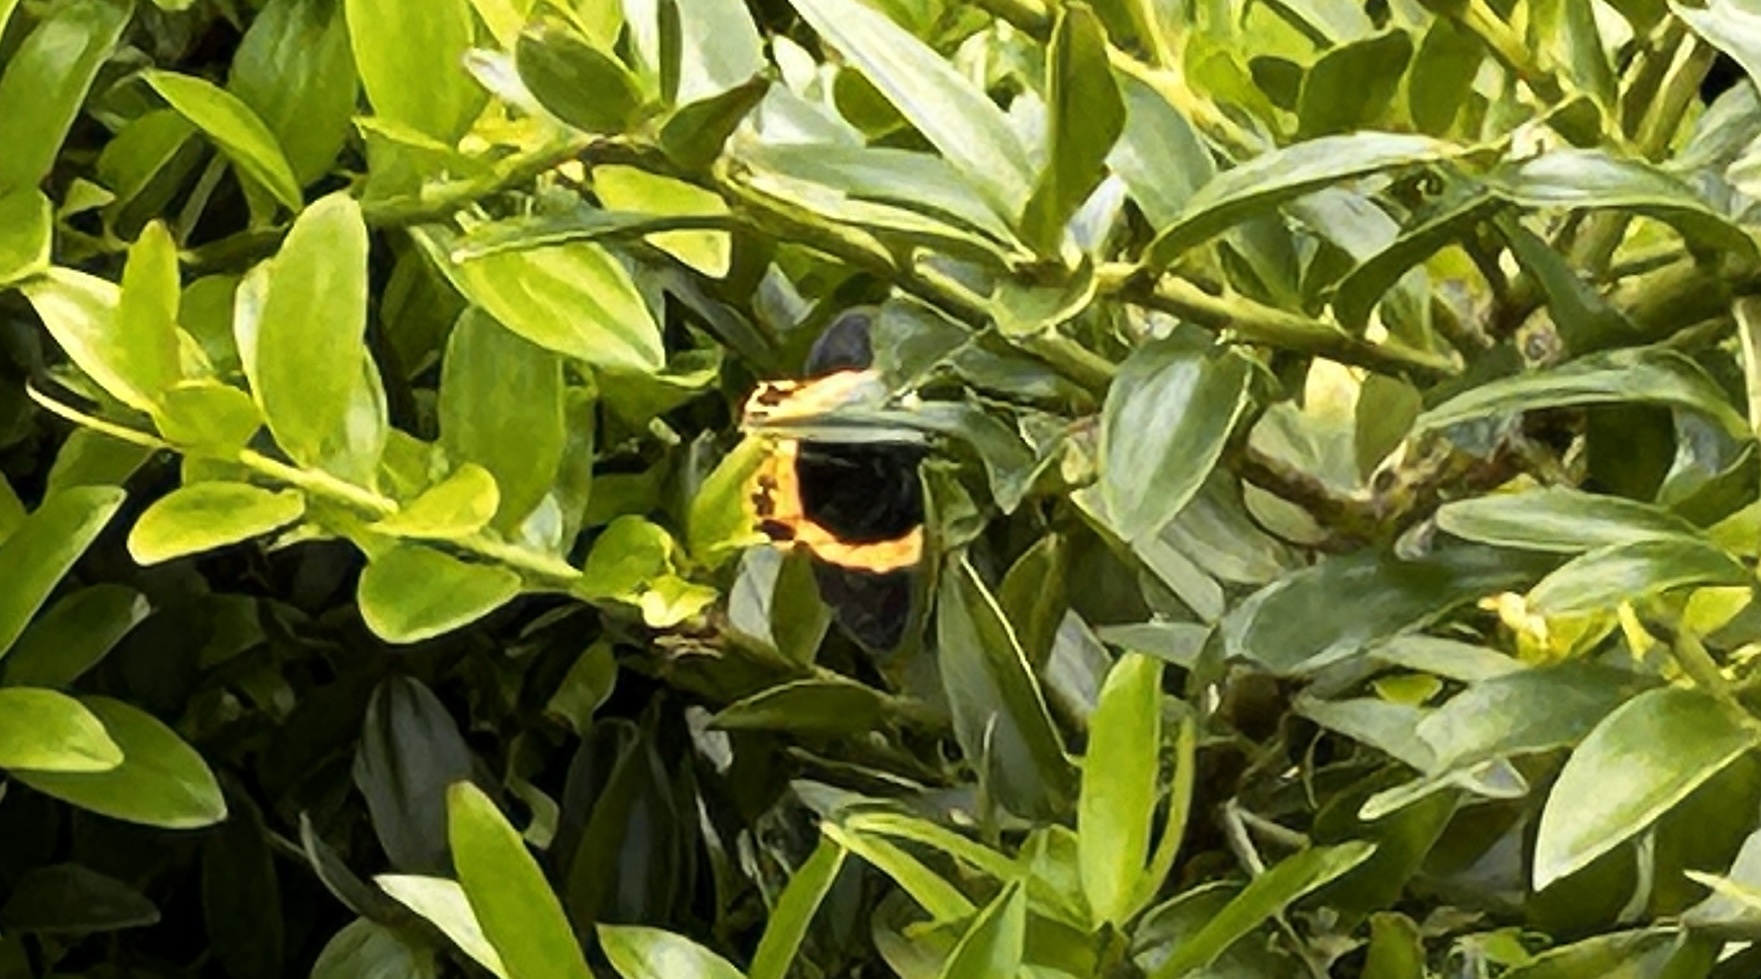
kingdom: Animalia
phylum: Arthropoda
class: Insecta
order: Lepidoptera
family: Geometridae
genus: Milionia
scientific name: Milionia basalis
